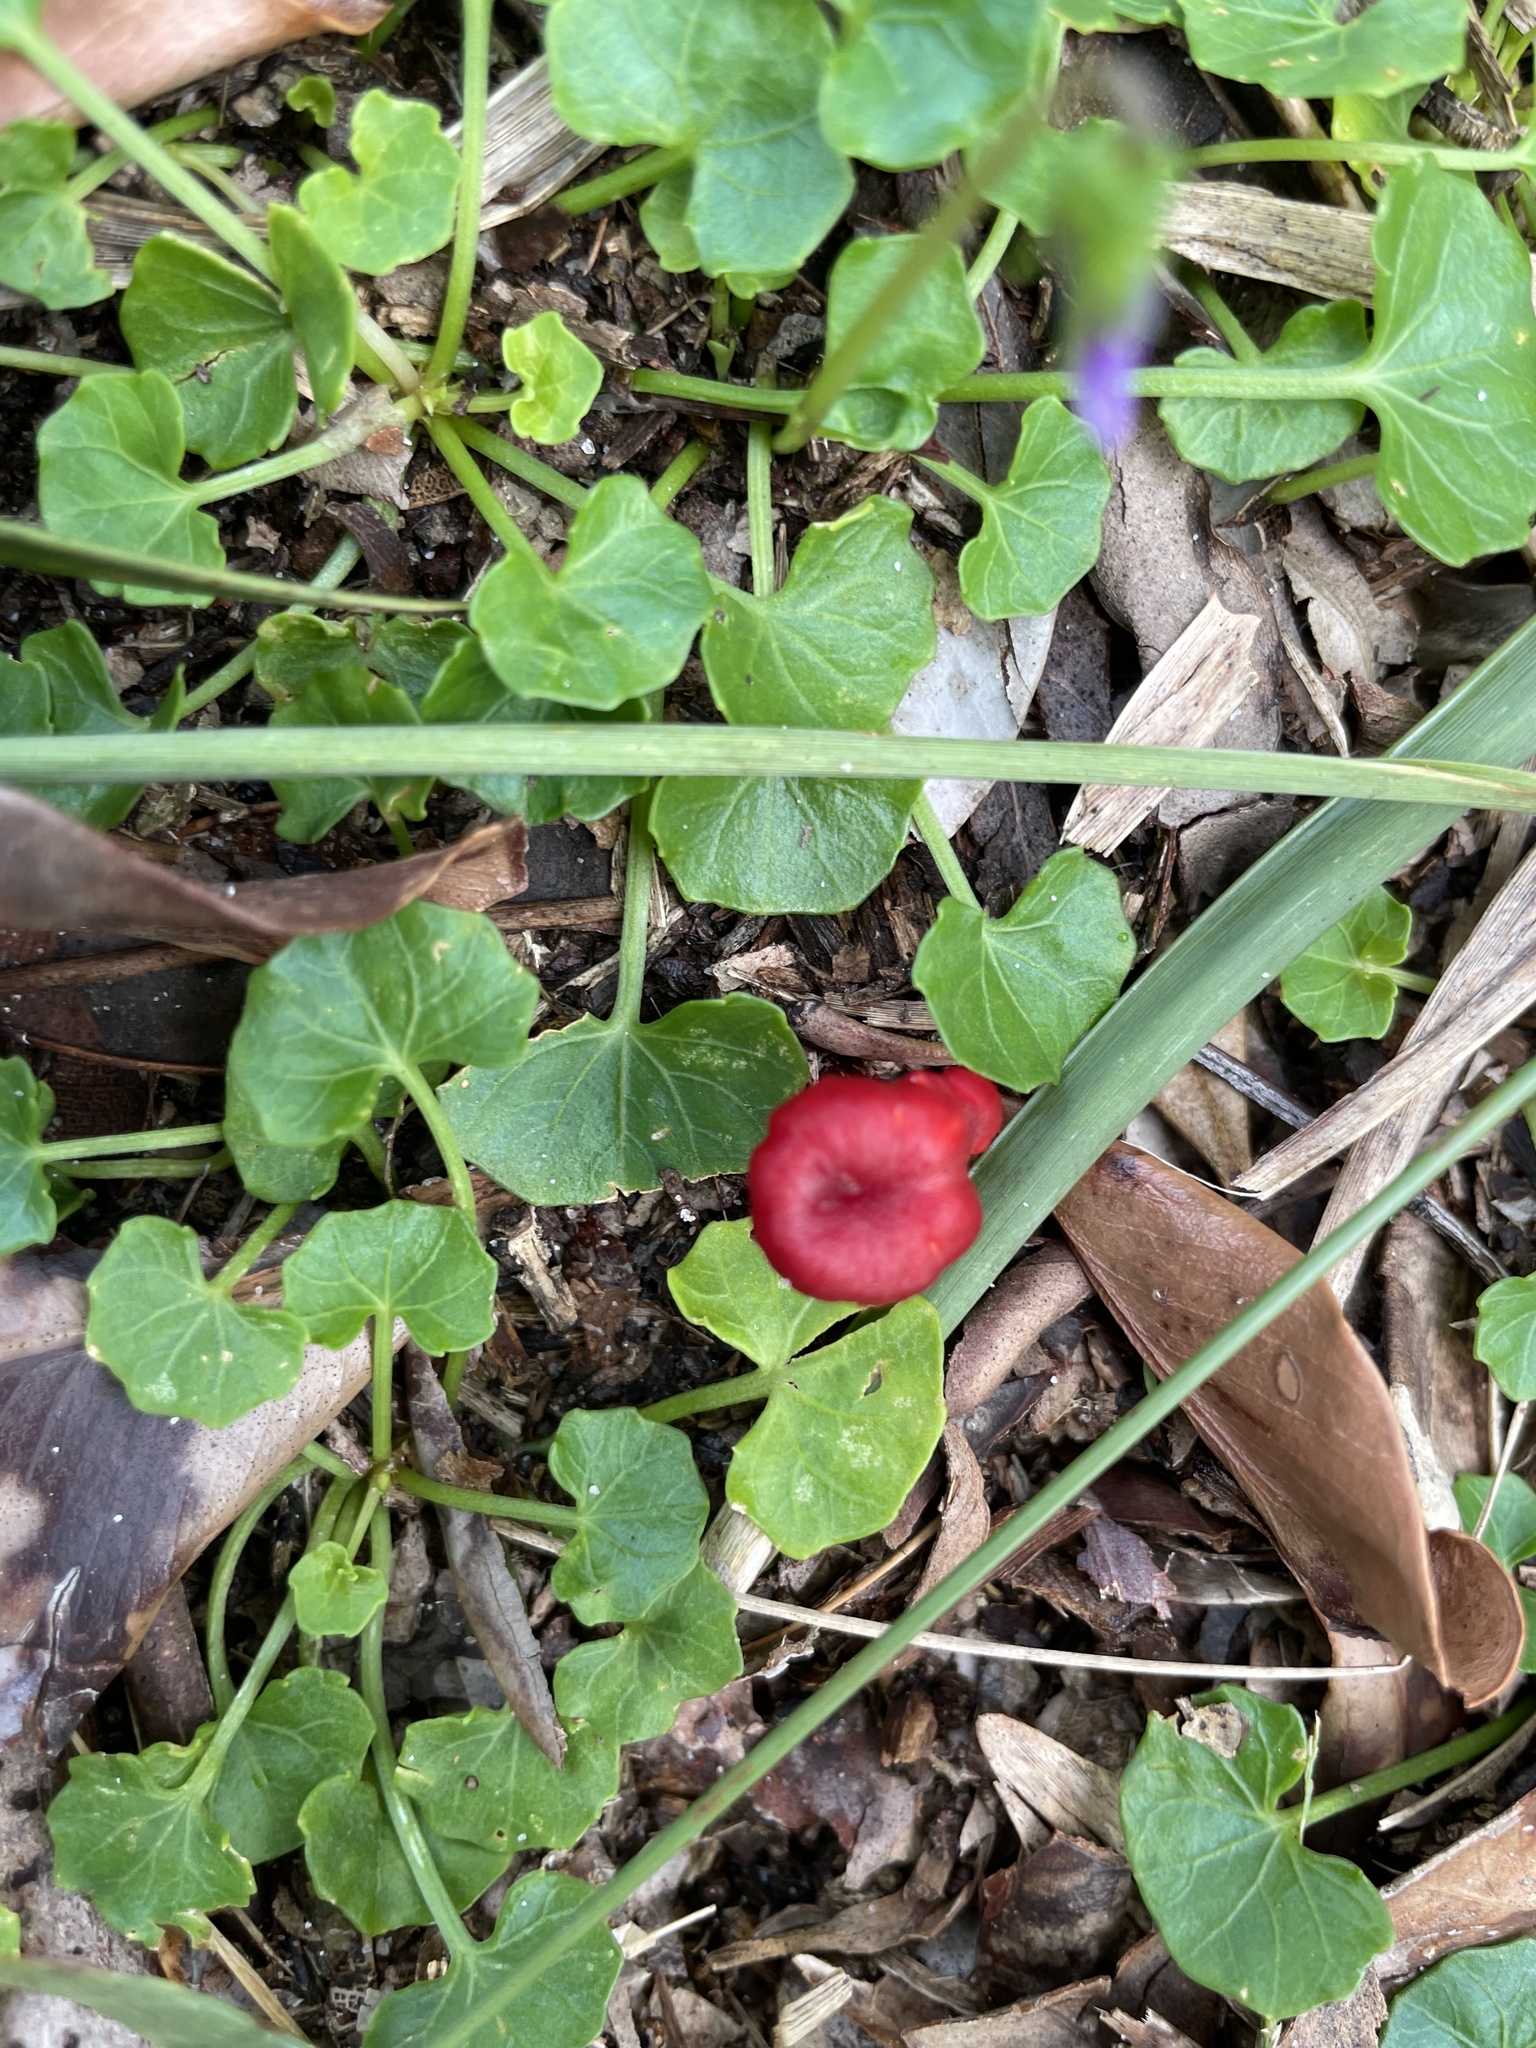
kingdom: Fungi
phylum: Basidiomycota
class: Agaricomycetes
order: Agaricales
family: Mycenaceae
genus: Cruentomycena
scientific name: Cruentomycena viscidocruenta
